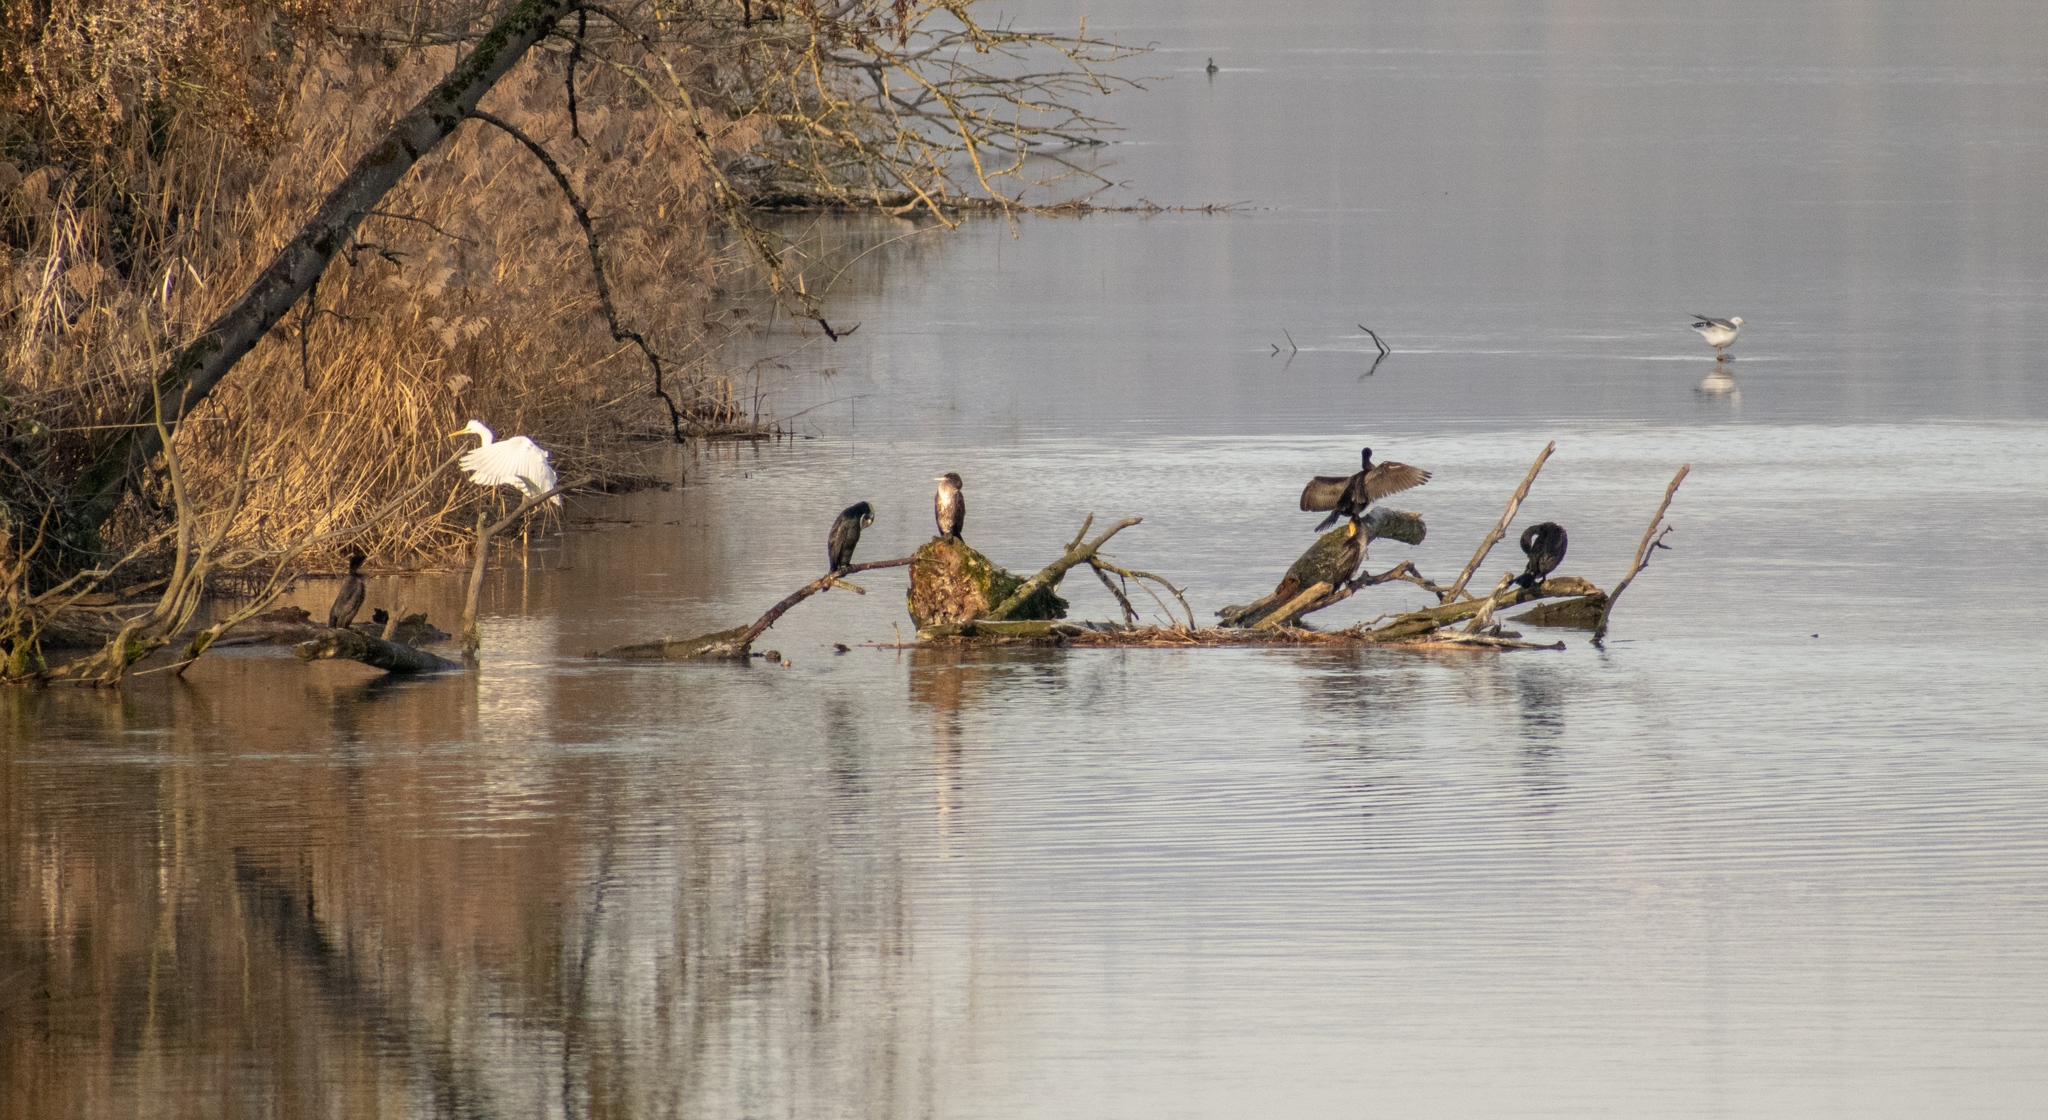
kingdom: Animalia
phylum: Chordata
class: Aves
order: Suliformes
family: Phalacrocoracidae
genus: Phalacrocorax
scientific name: Phalacrocorax carbo
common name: Great cormorant
